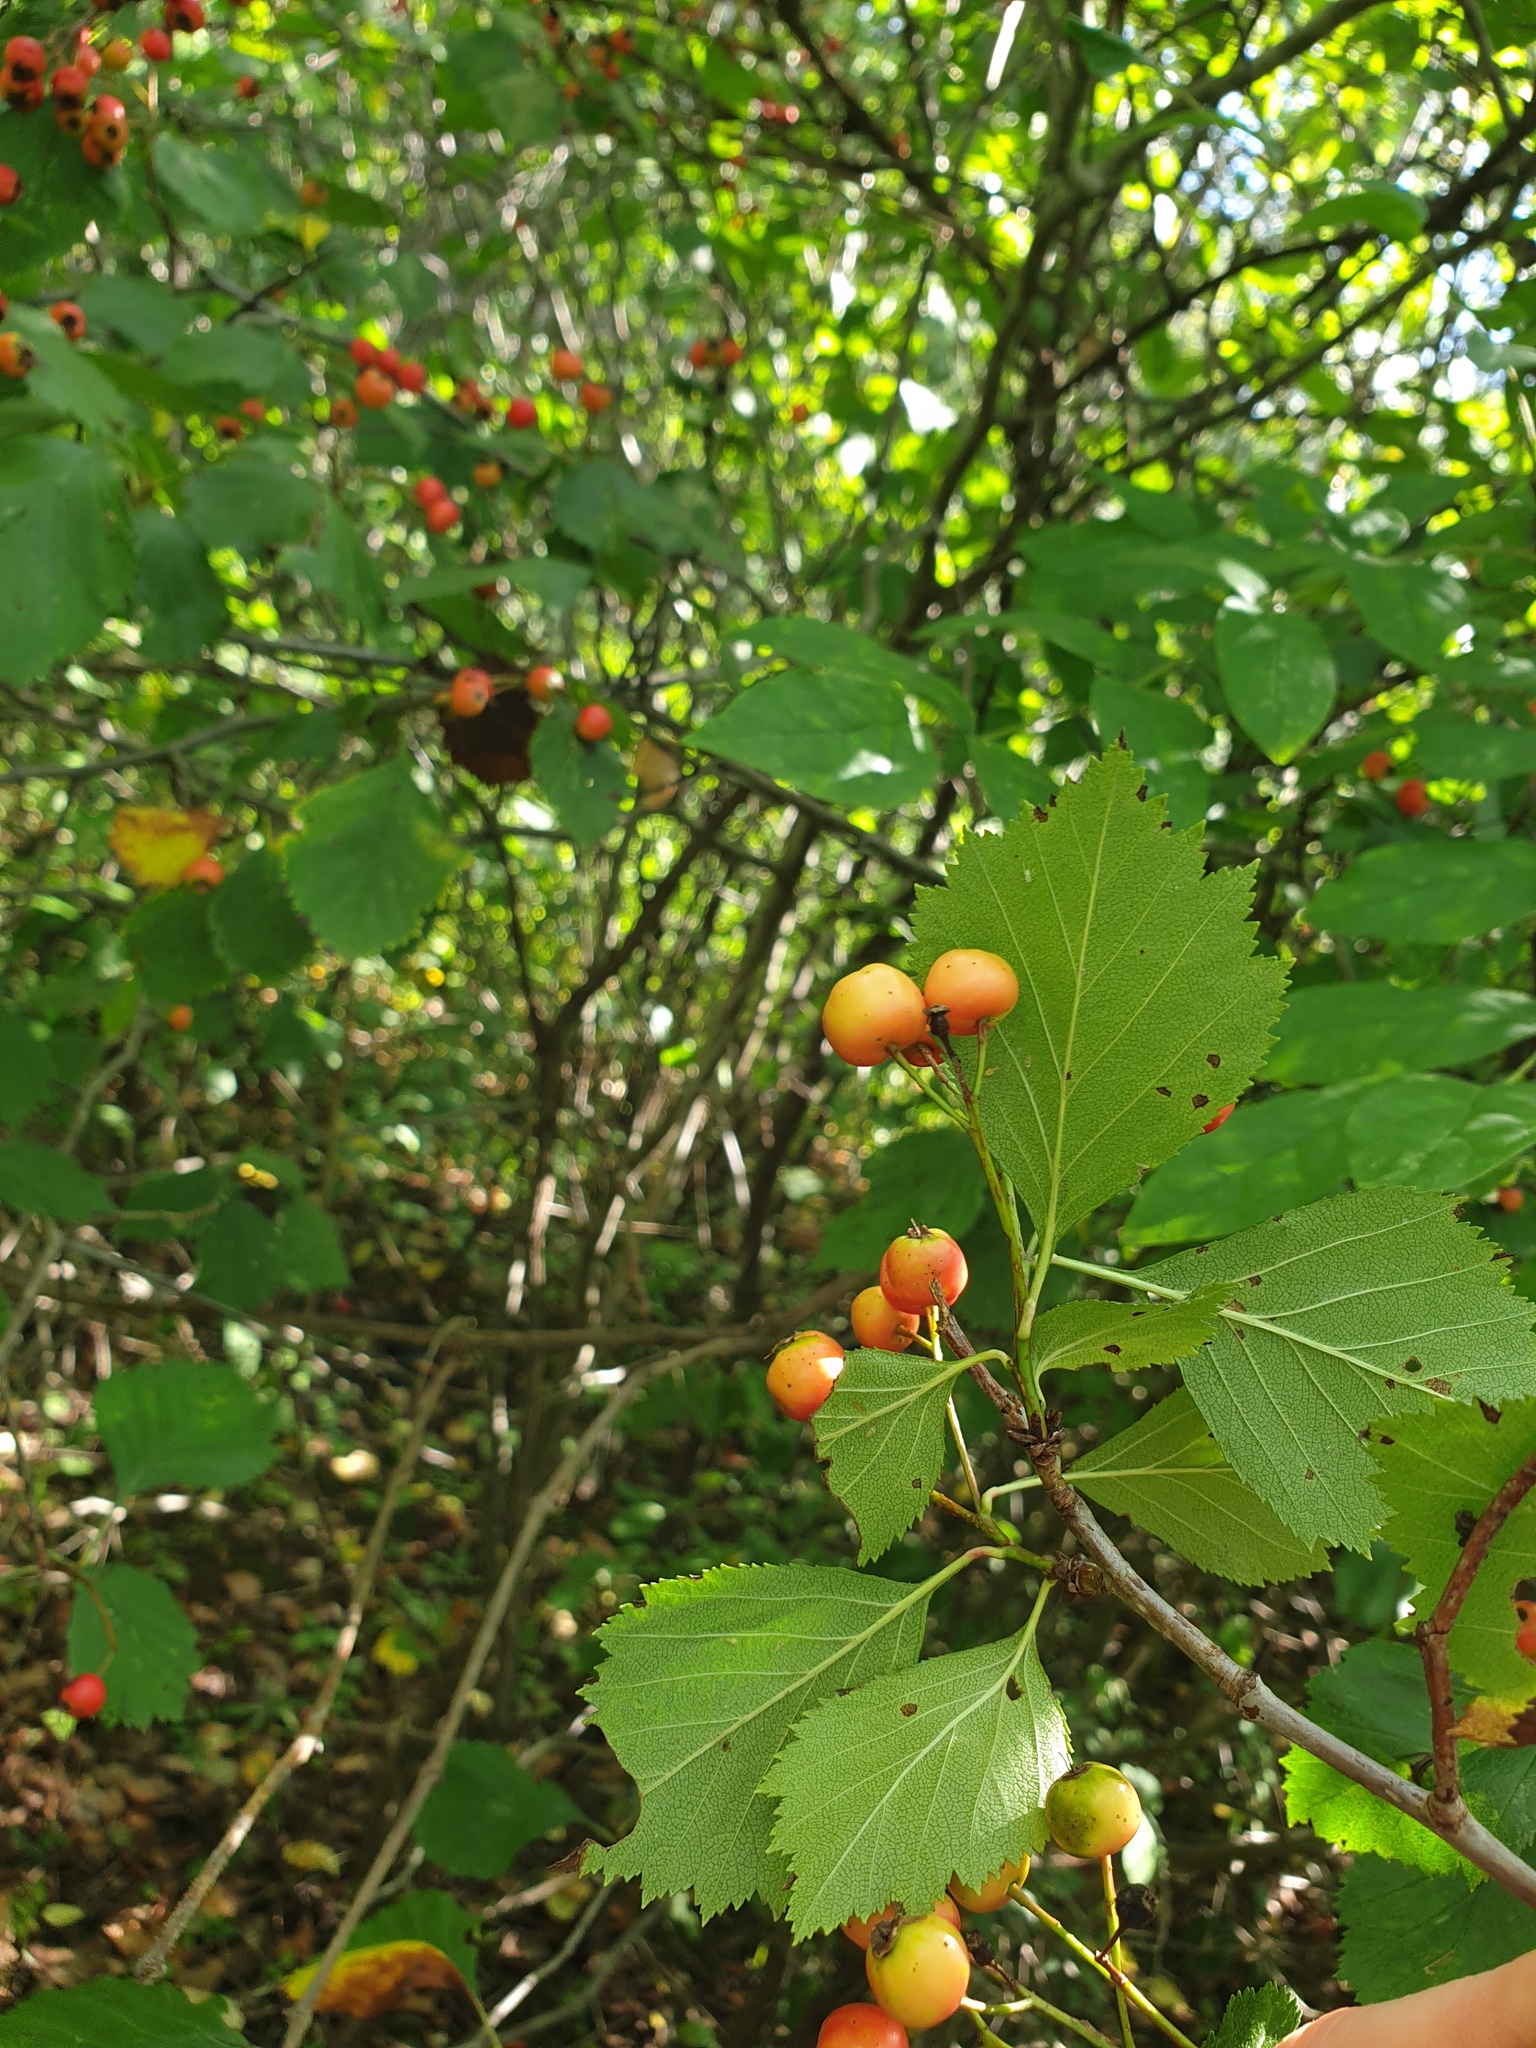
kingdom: Plantae
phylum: Tracheophyta
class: Magnoliopsida
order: Rosales
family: Rosaceae
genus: Crataegus
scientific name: Crataegus scabrida
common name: Rough hawthorn
